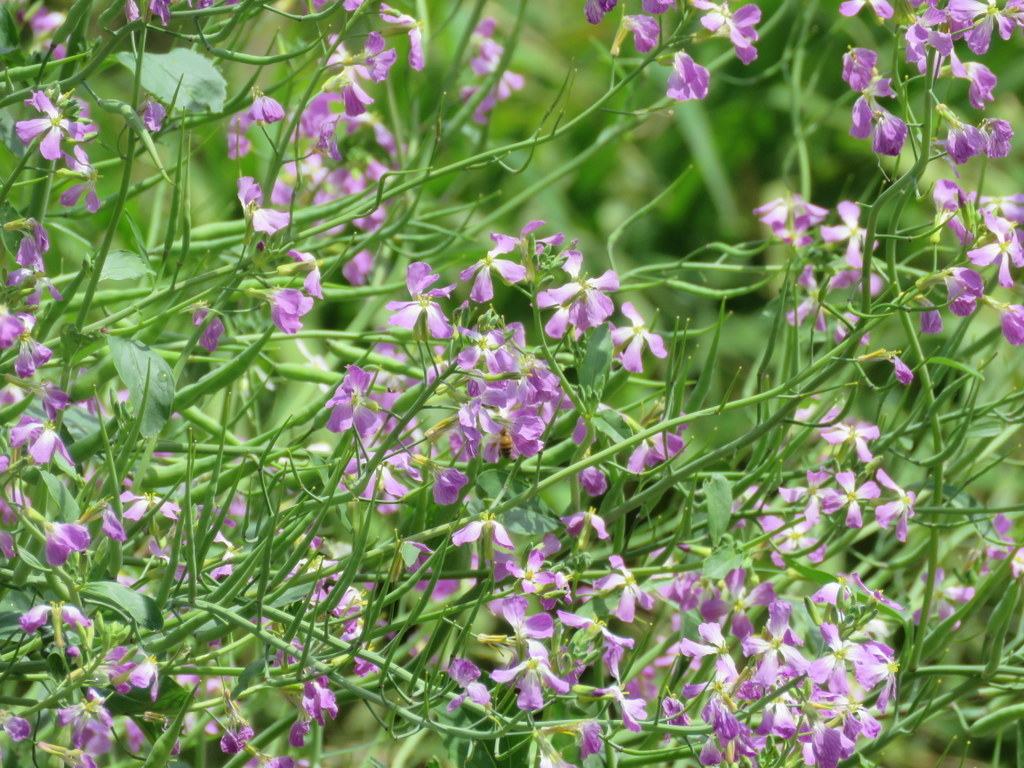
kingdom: Plantae
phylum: Tracheophyta
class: Magnoliopsida
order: Brassicales
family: Brassicaceae
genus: Raphanus
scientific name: Raphanus sativus
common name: Cultivated radish
